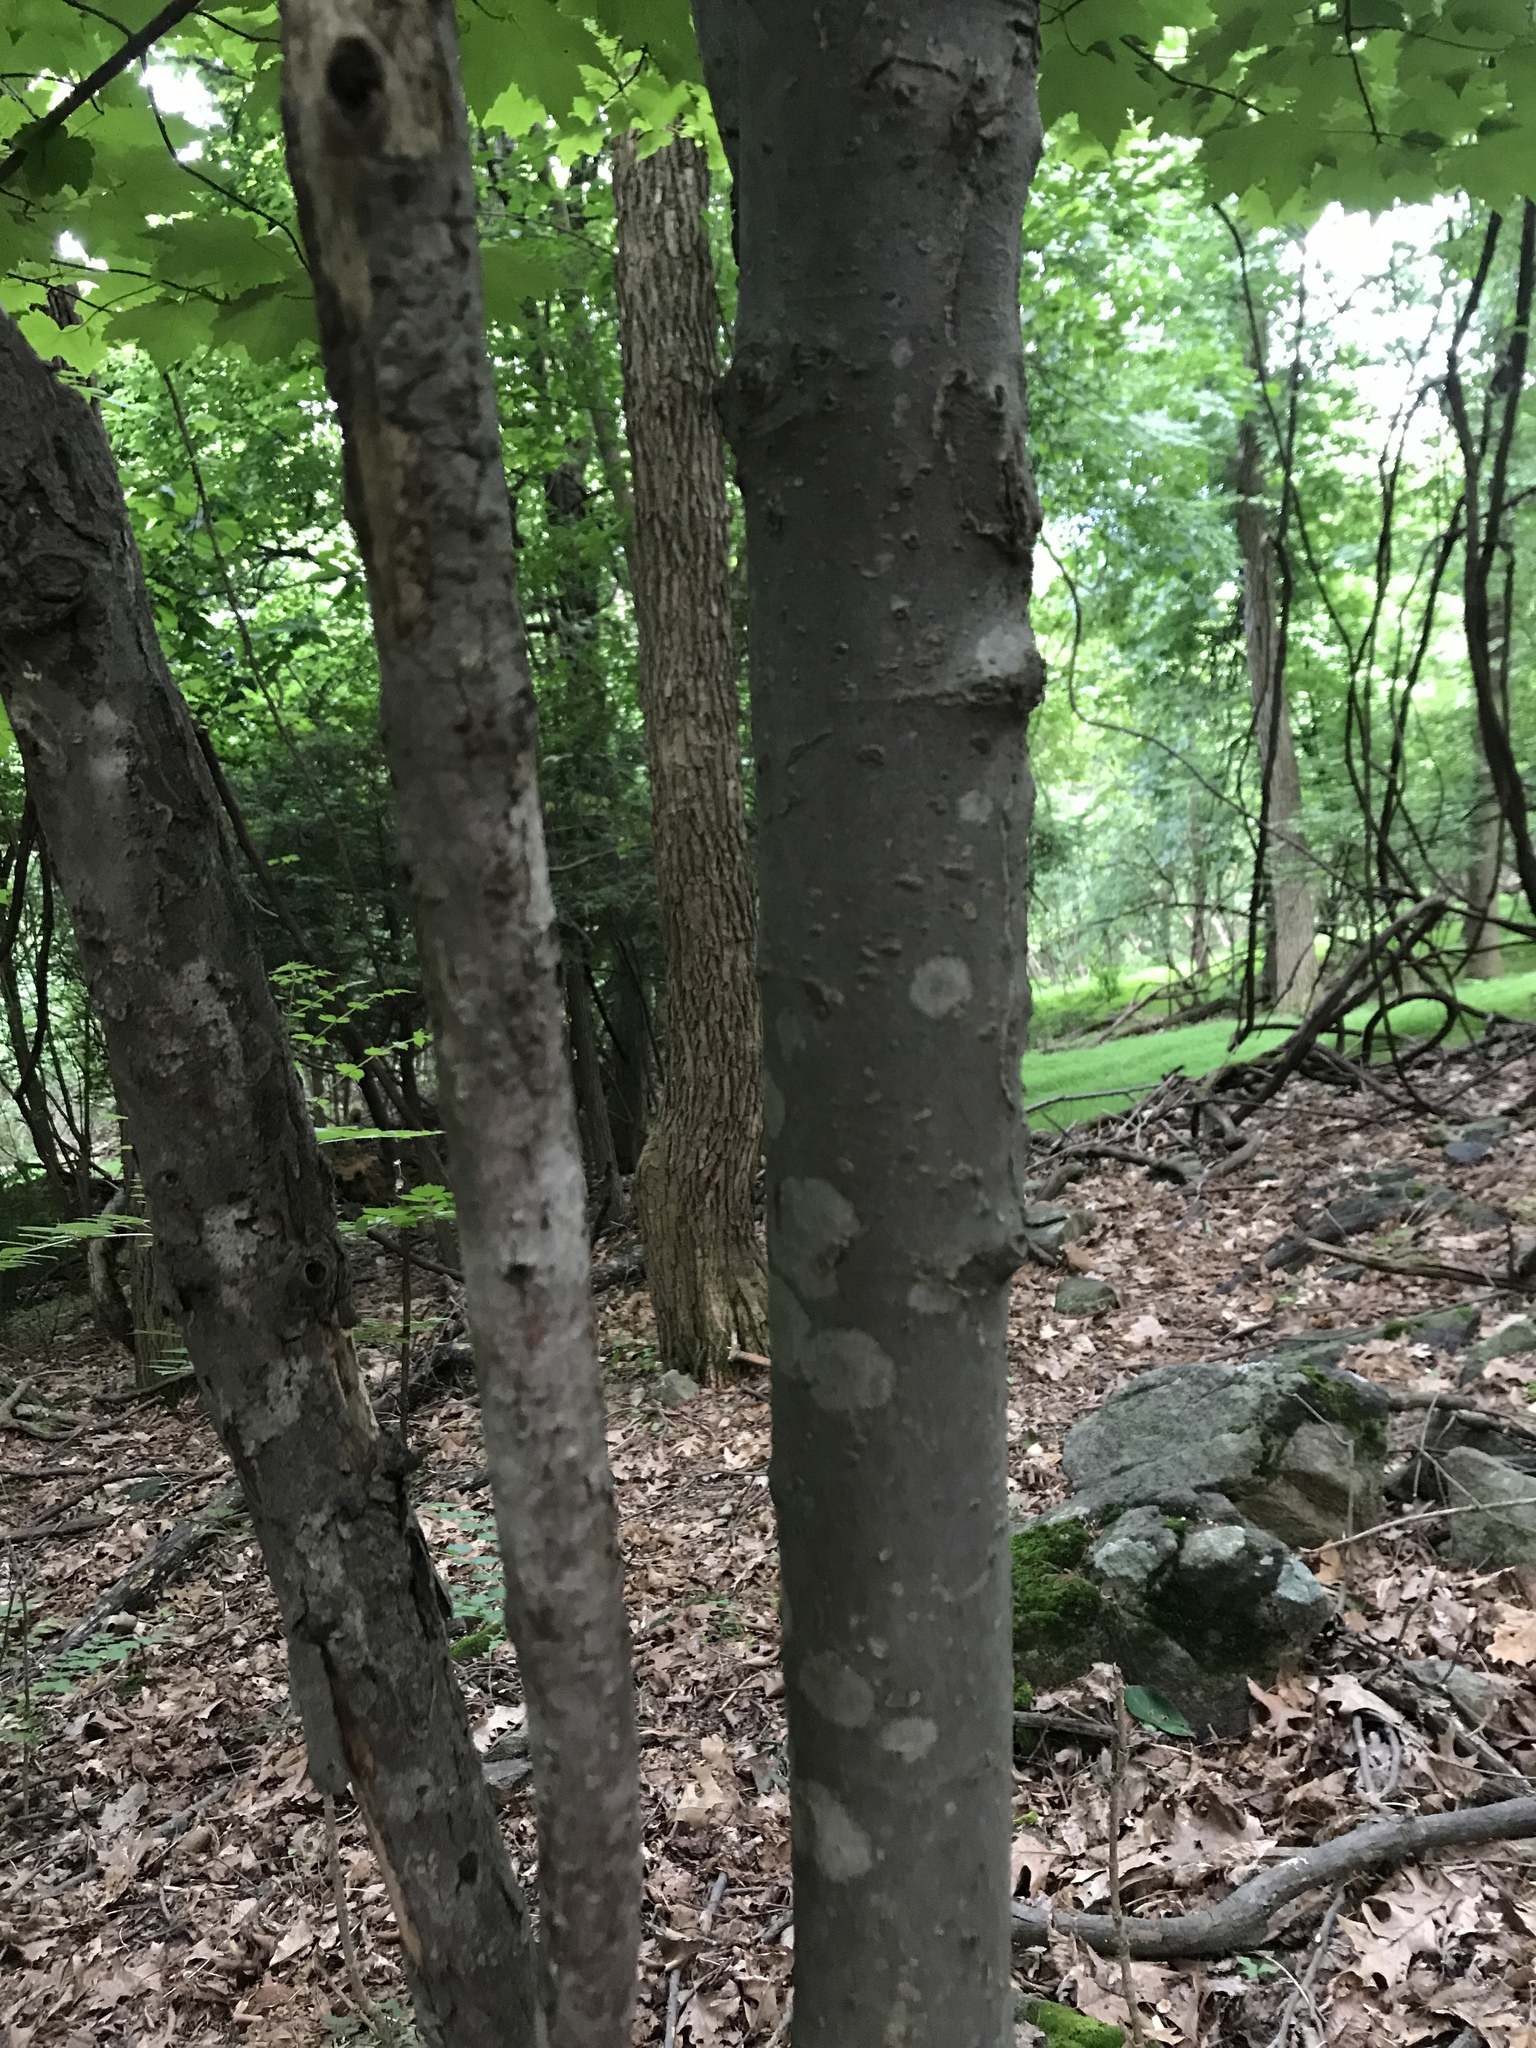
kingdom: Plantae
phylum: Tracheophyta
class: Magnoliopsida
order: Sapindales
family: Sapindaceae
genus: Acer
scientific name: Acer rubrum
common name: Red maple
